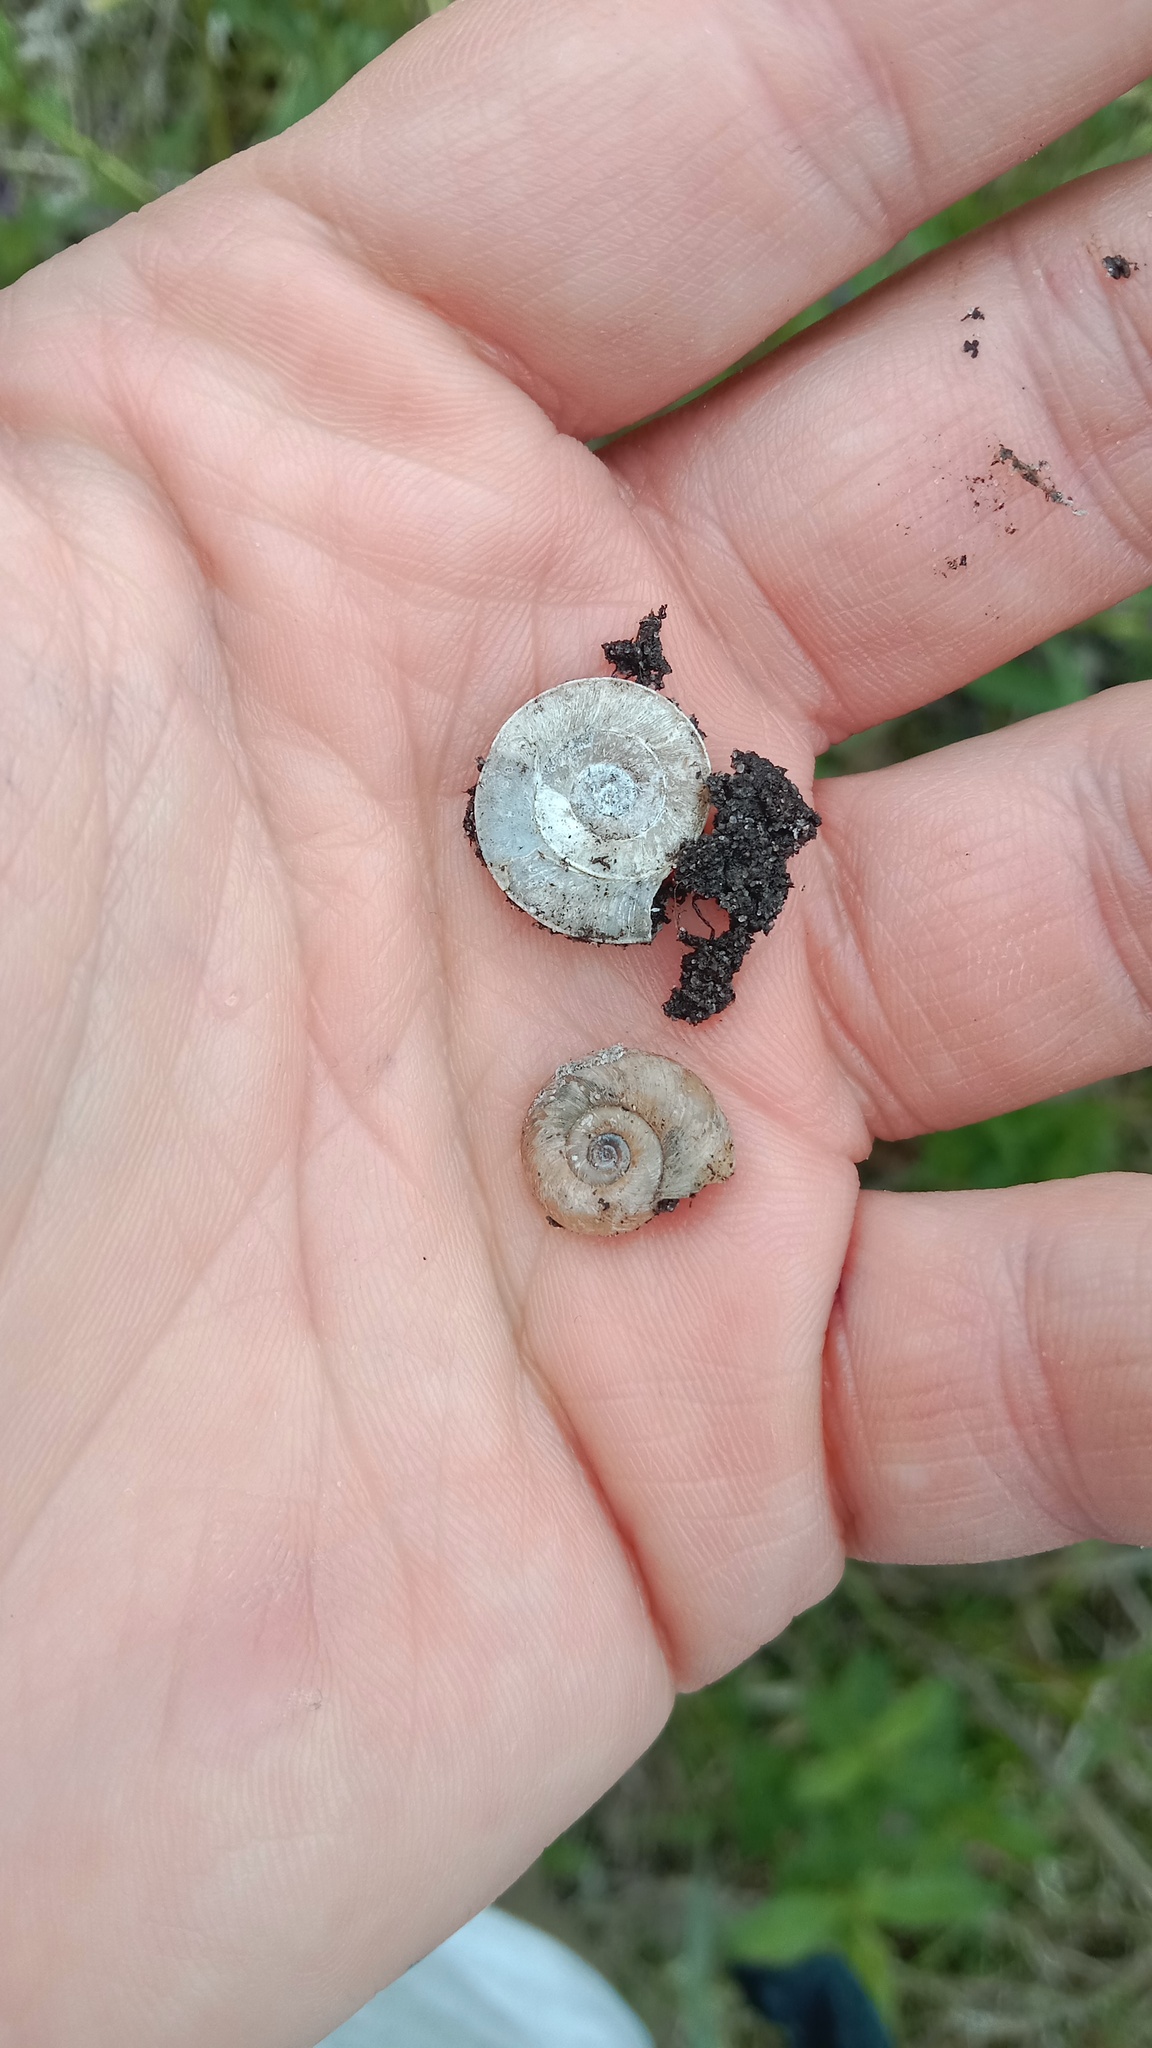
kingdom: Animalia
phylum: Mollusca
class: Gastropoda
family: Planorbidae
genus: Planorbis
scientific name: Planorbis planorbis
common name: Margined ramshorn
